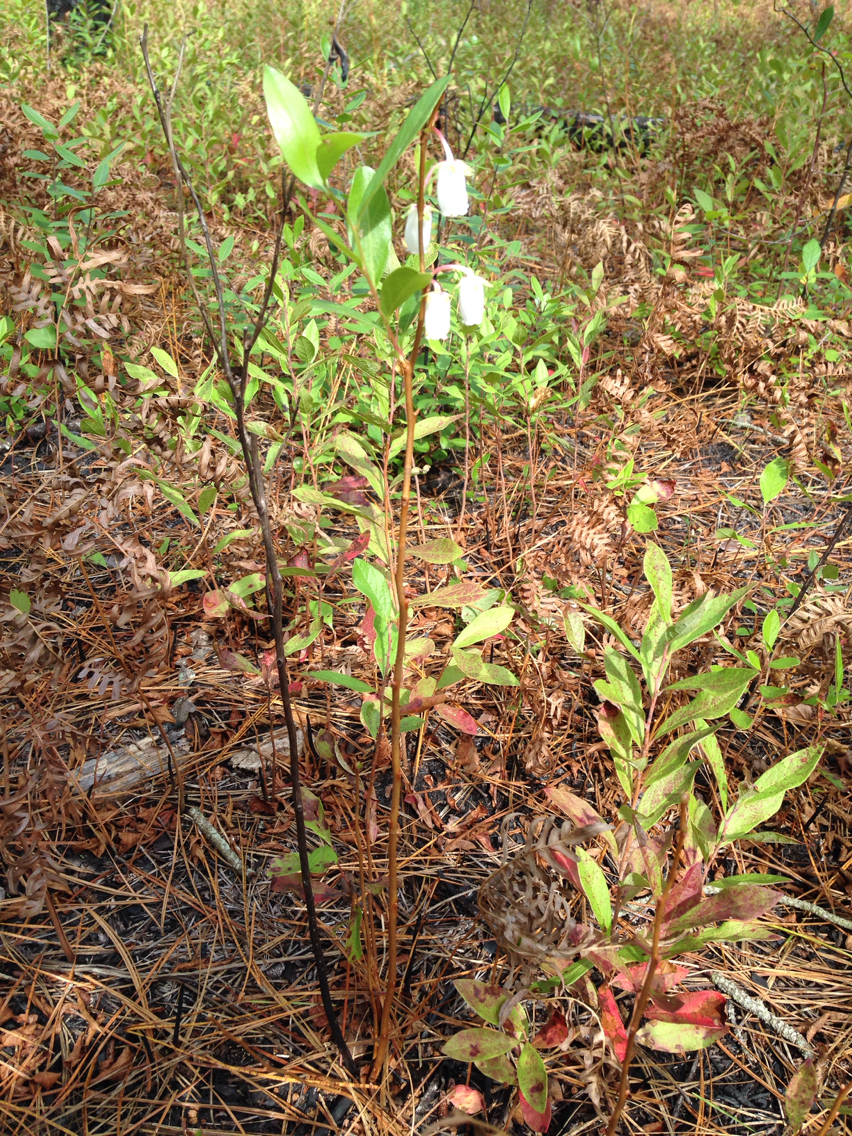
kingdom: Plantae
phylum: Tracheophyta
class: Magnoliopsida
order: Ericales
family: Ericaceae
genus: Lyonia
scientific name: Lyonia mariana
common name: Staggerbush
